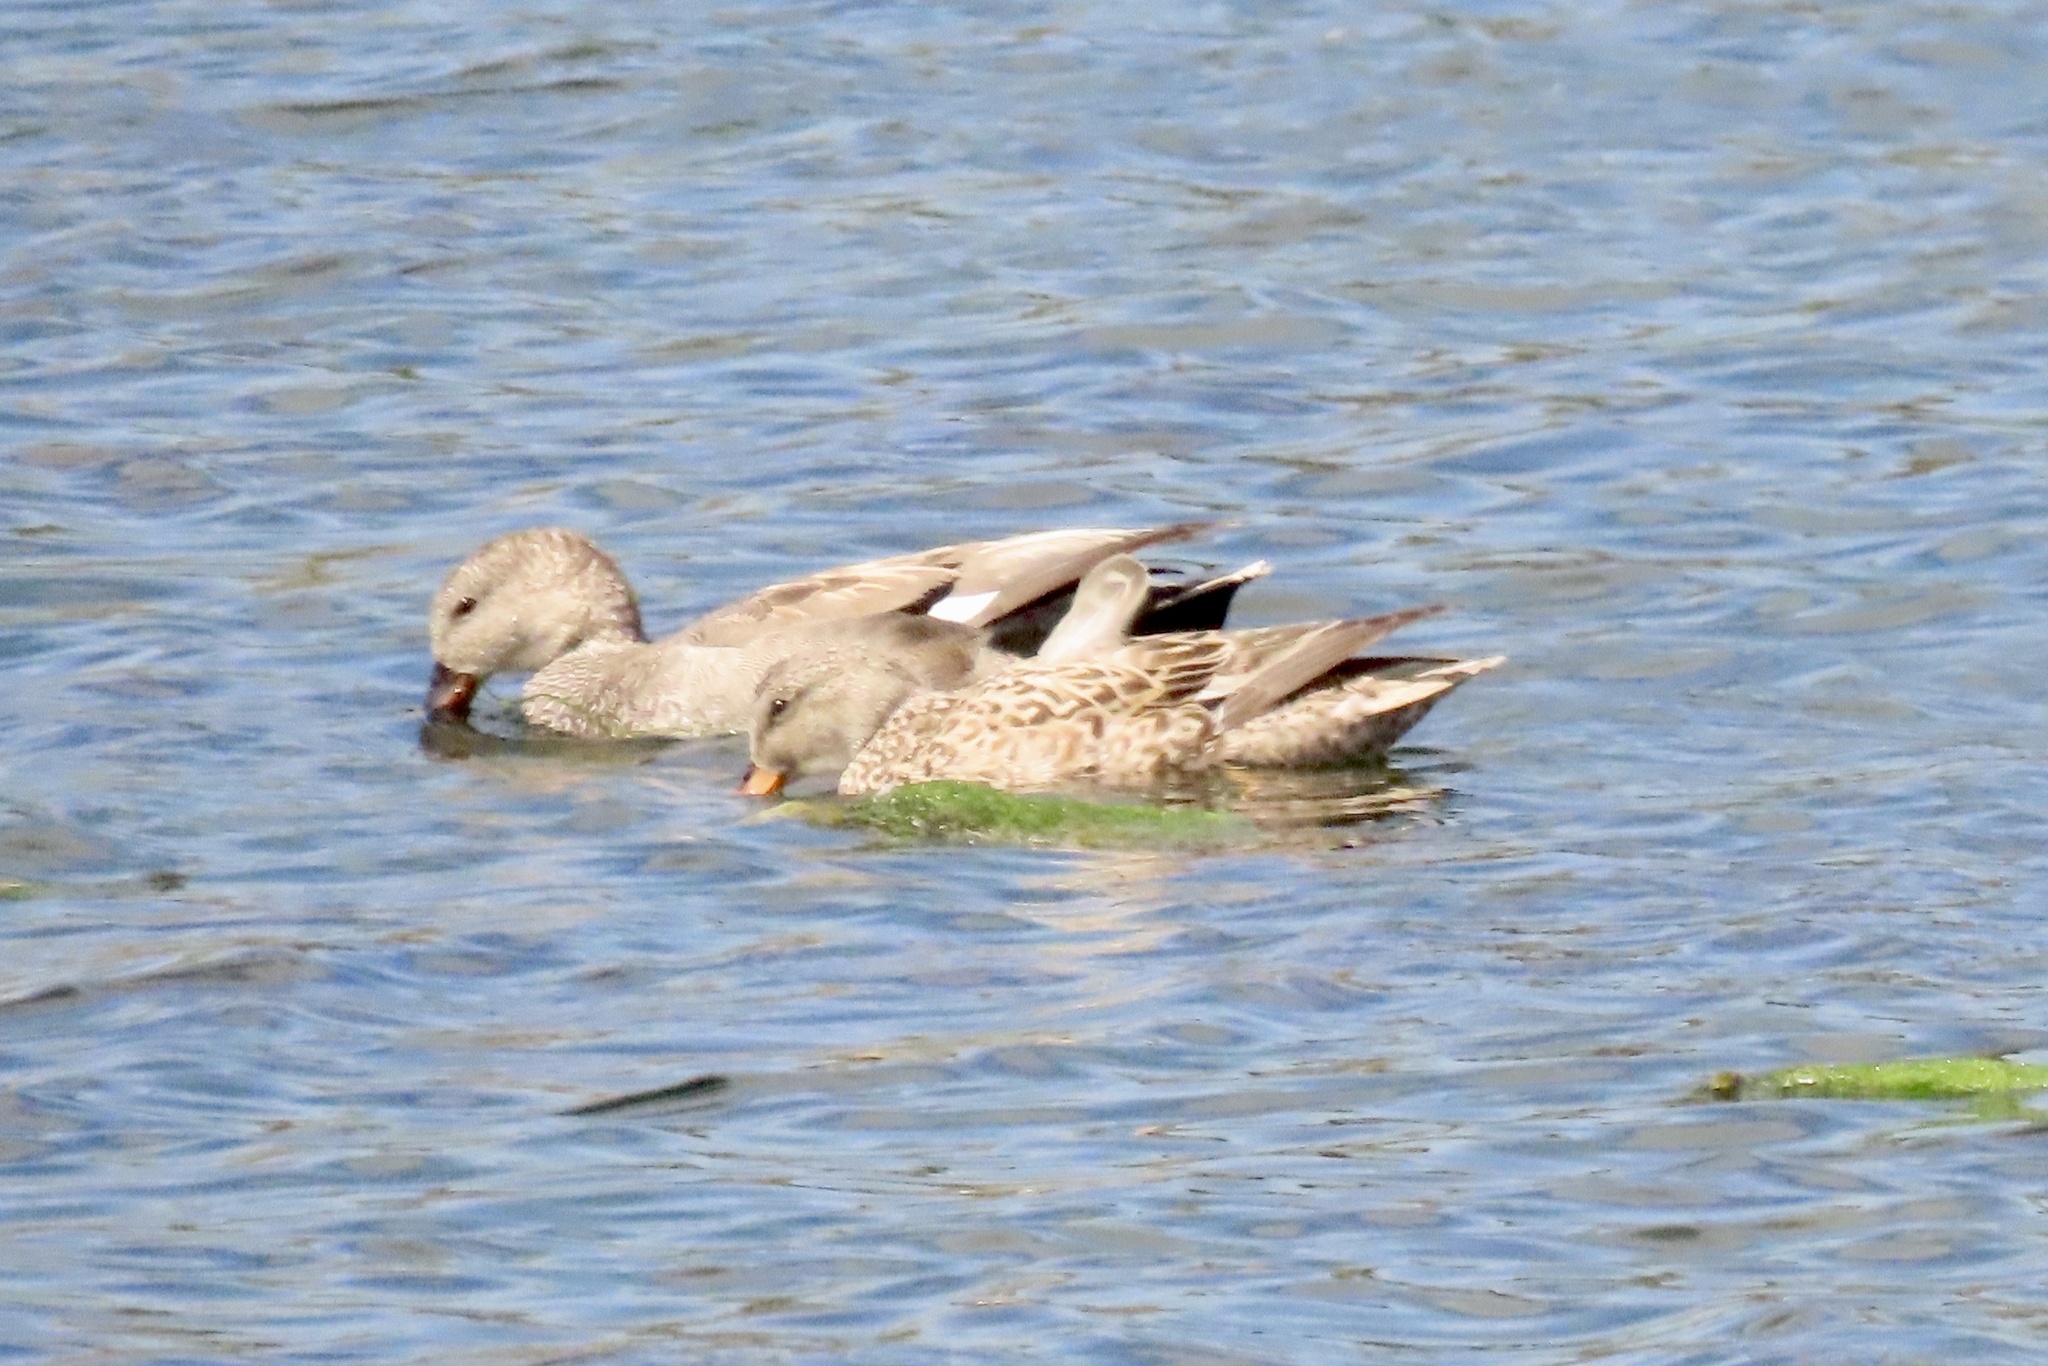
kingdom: Animalia
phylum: Chordata
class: Aves
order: Anseriformes
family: Anatidae
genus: Mareca
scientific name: Mareca strepera
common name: Gadwall
